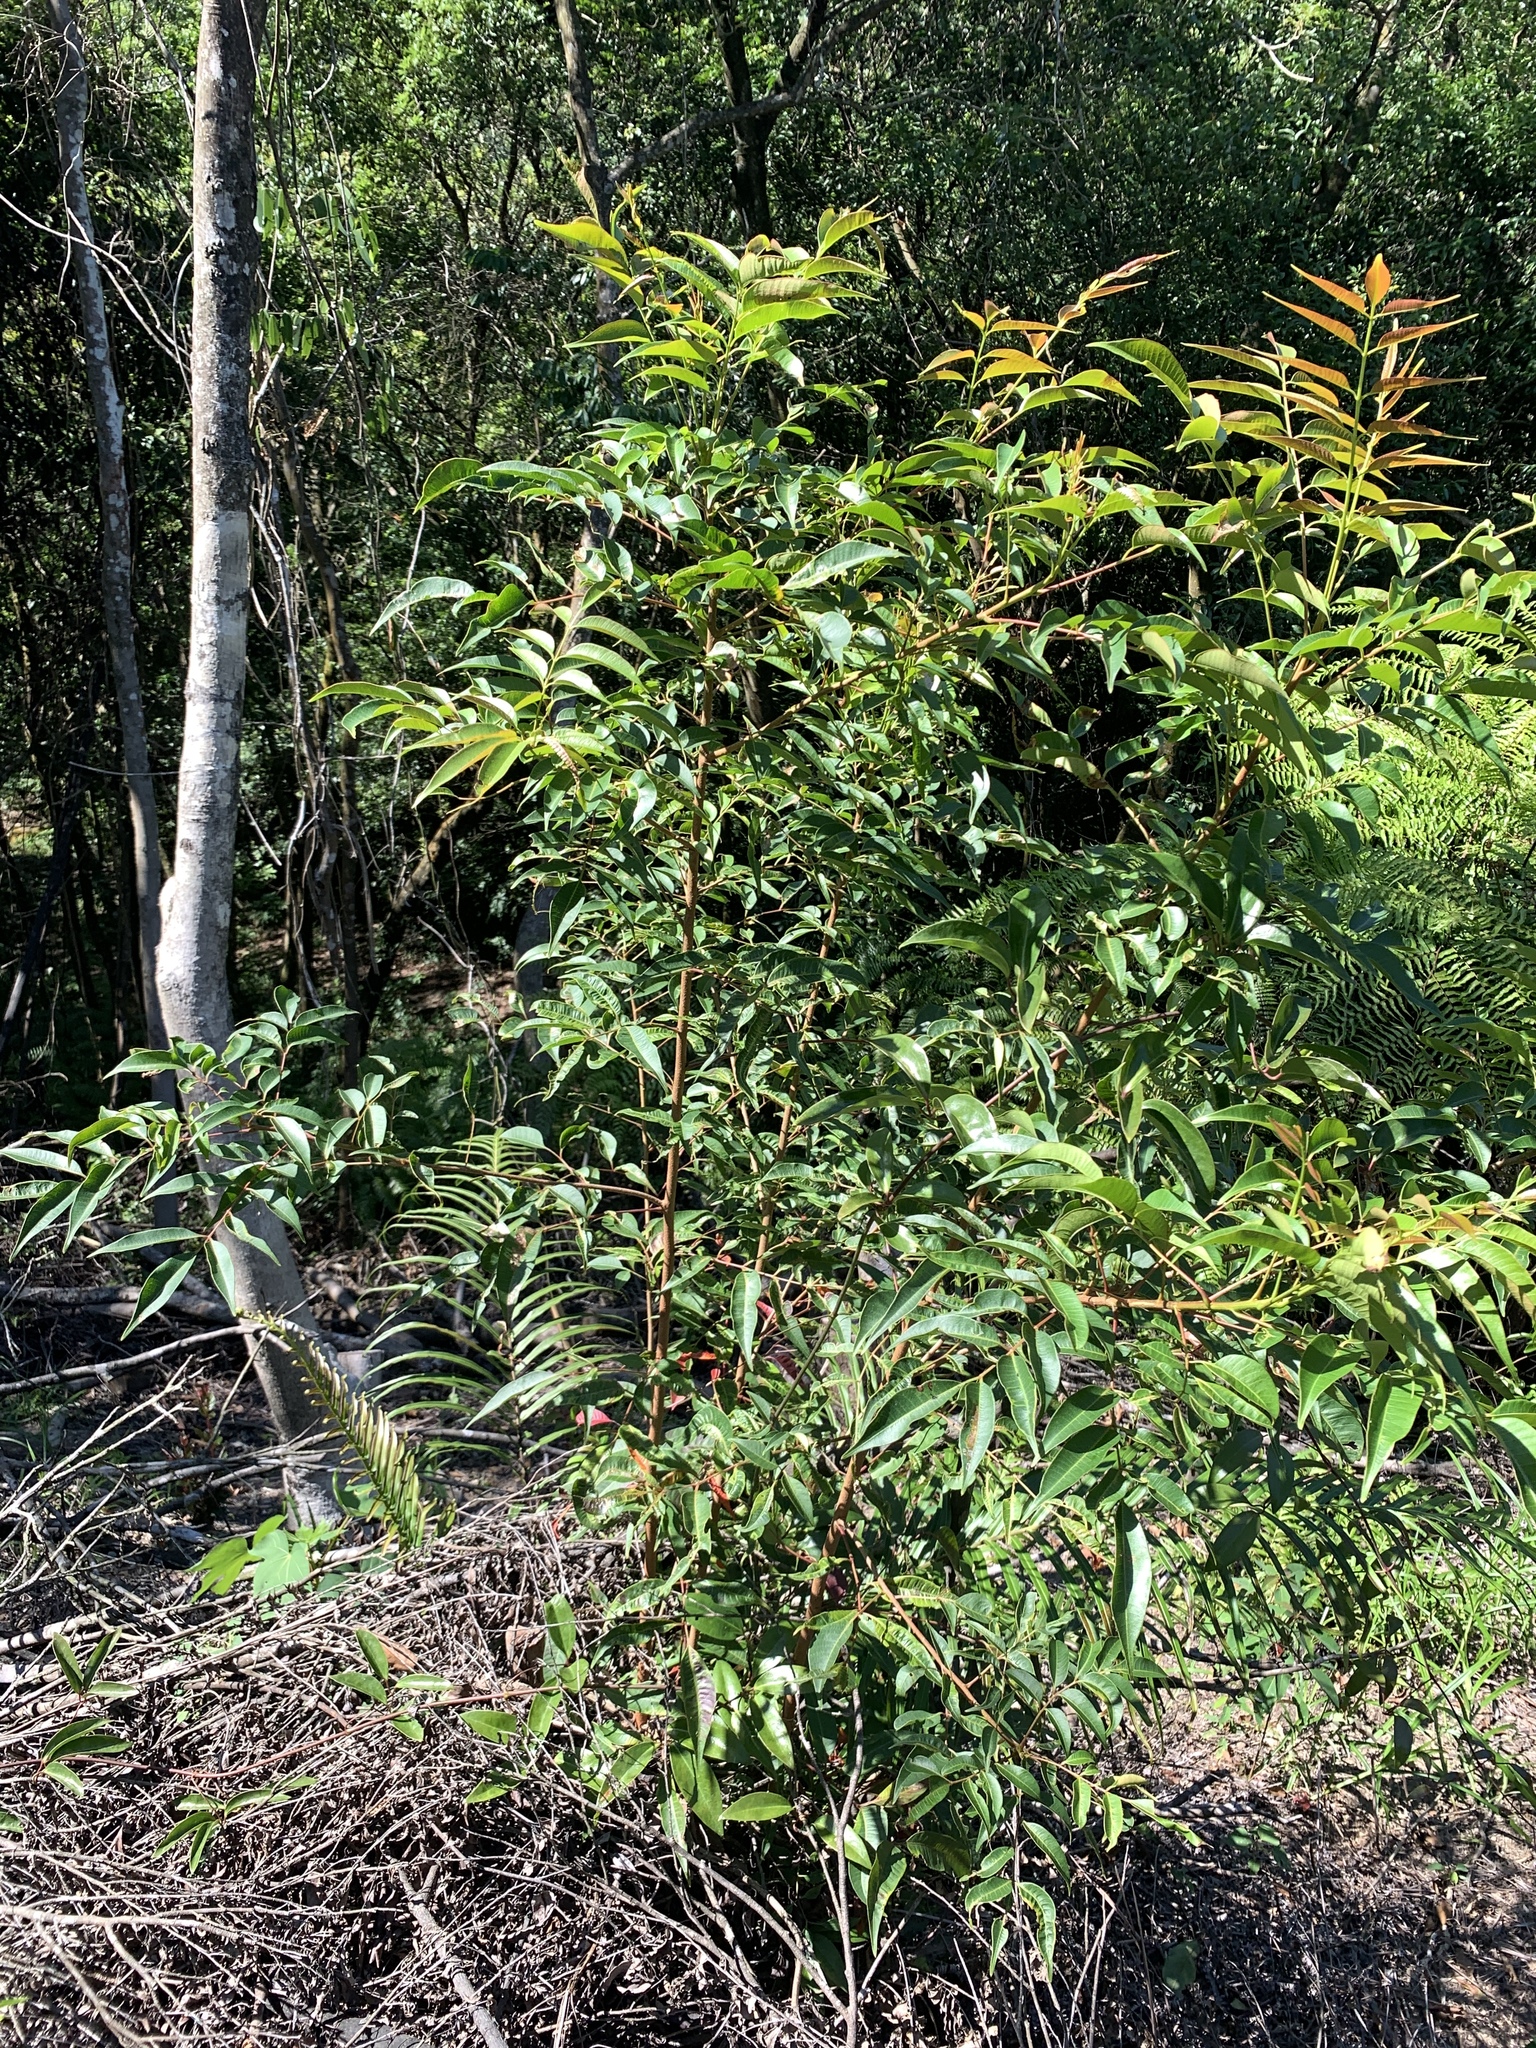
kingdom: Plantae
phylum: Tracheophyta
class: Magnoliopsida
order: Sapindales
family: Anacardiaceae
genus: Toxicodendron
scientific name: Toxicodendron succedaneum
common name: Wax tree
